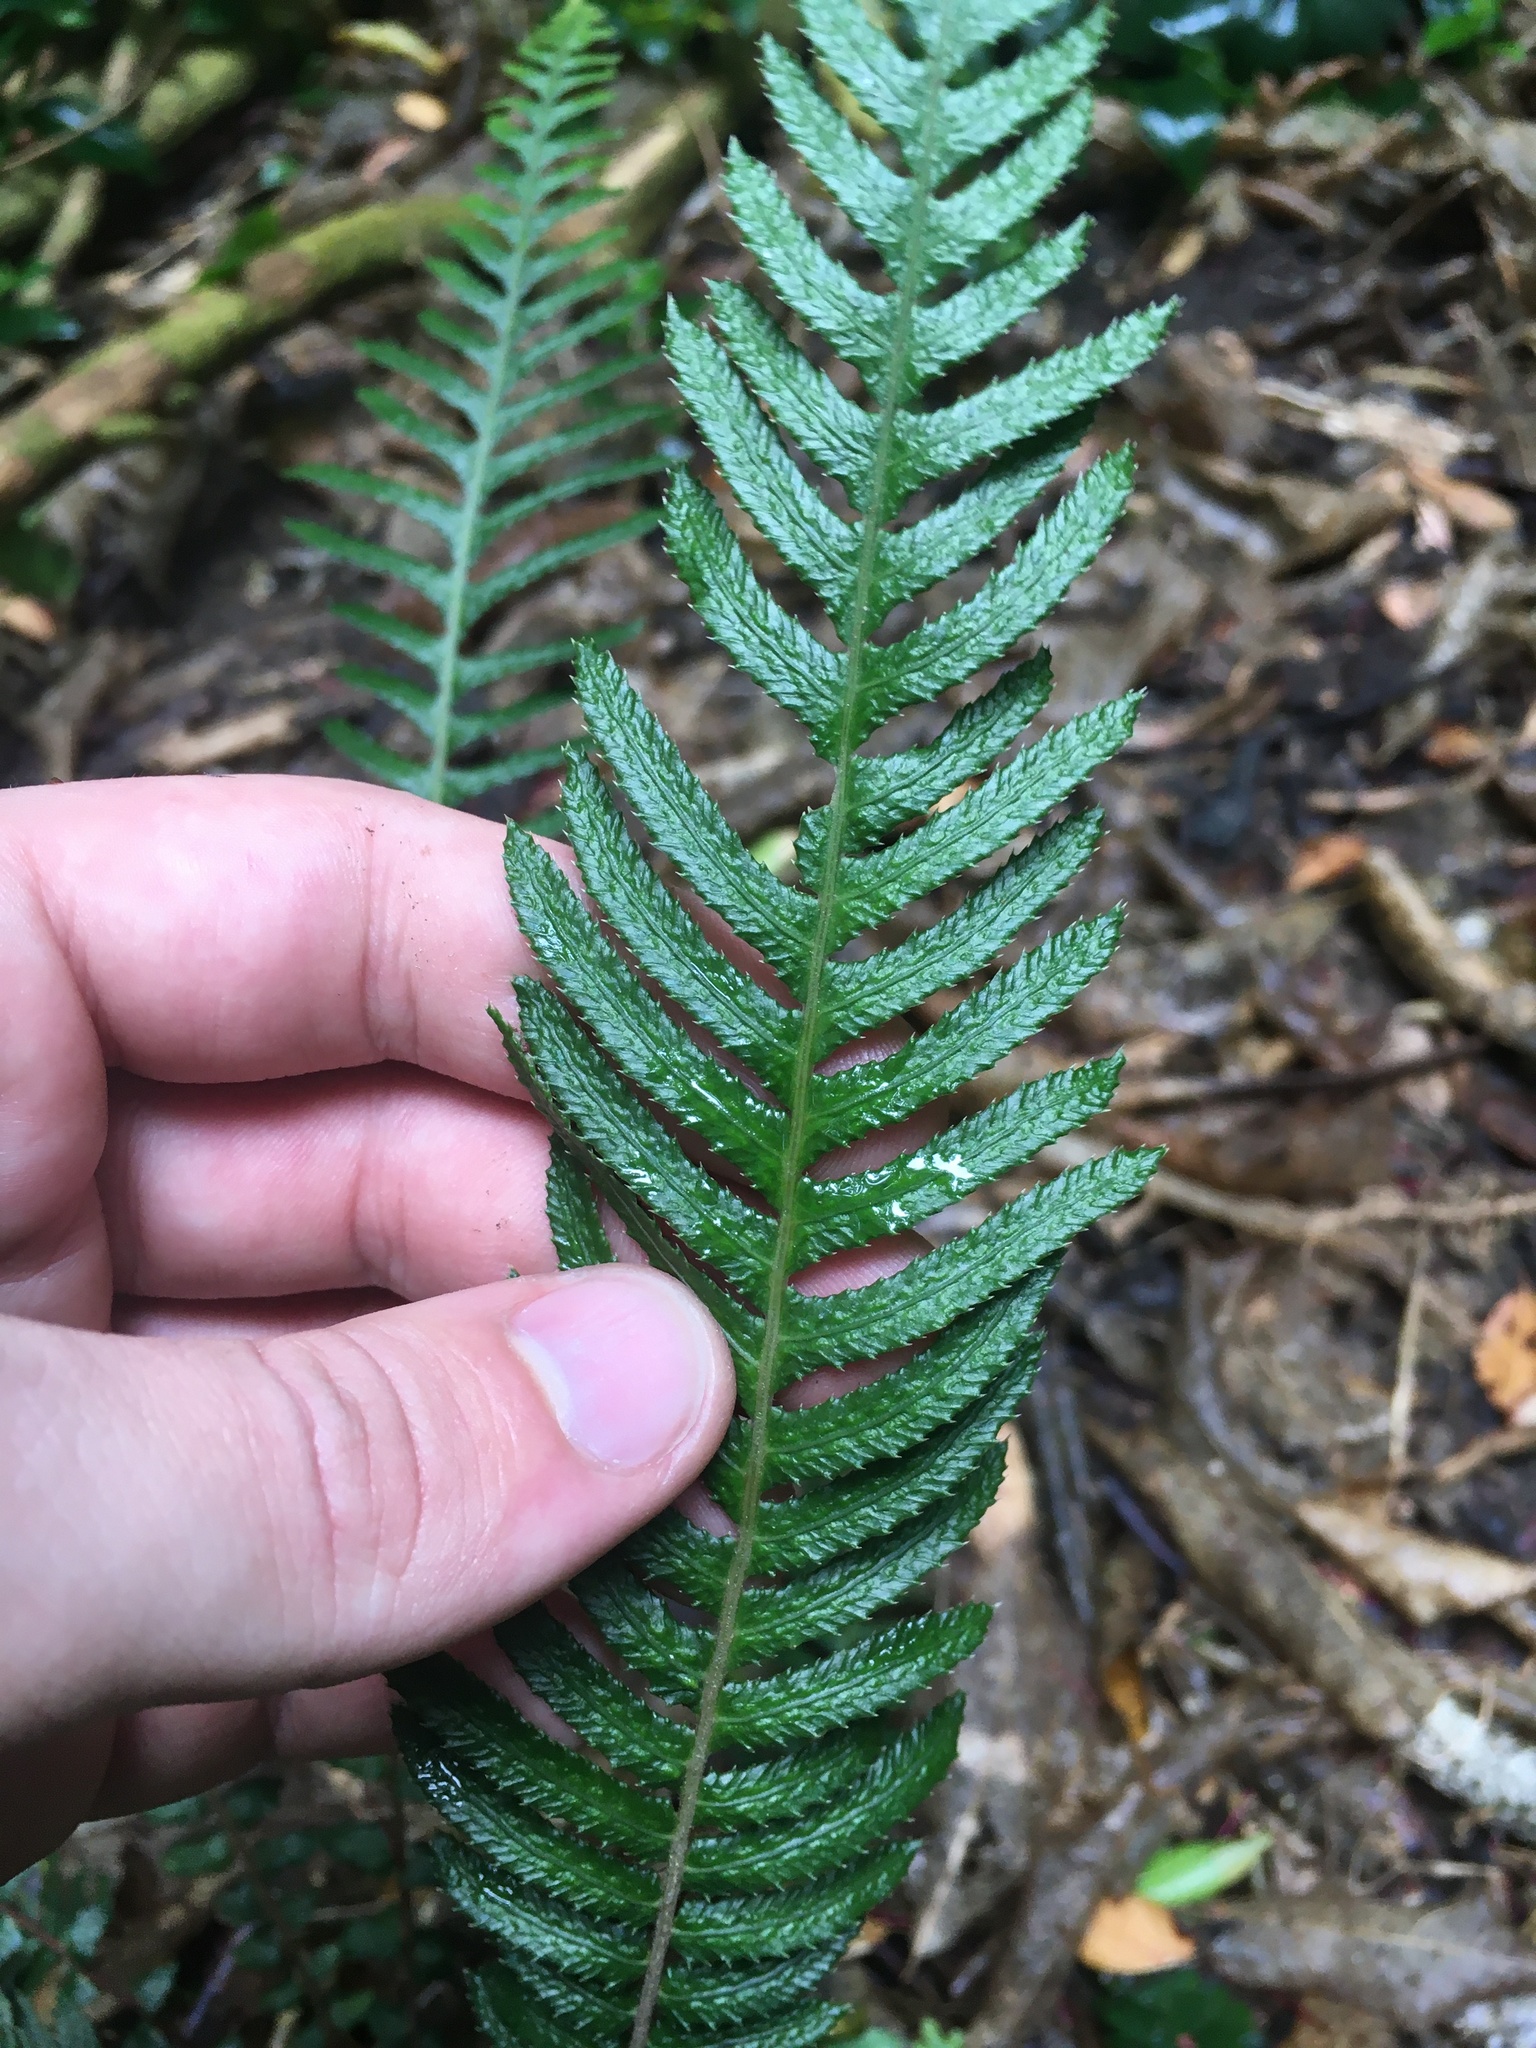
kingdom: Plantae
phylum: Tracheophyta
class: Polypodiopsida
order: Polypodiales
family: Blechnaceae
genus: Doodia
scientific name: Doodia australis
